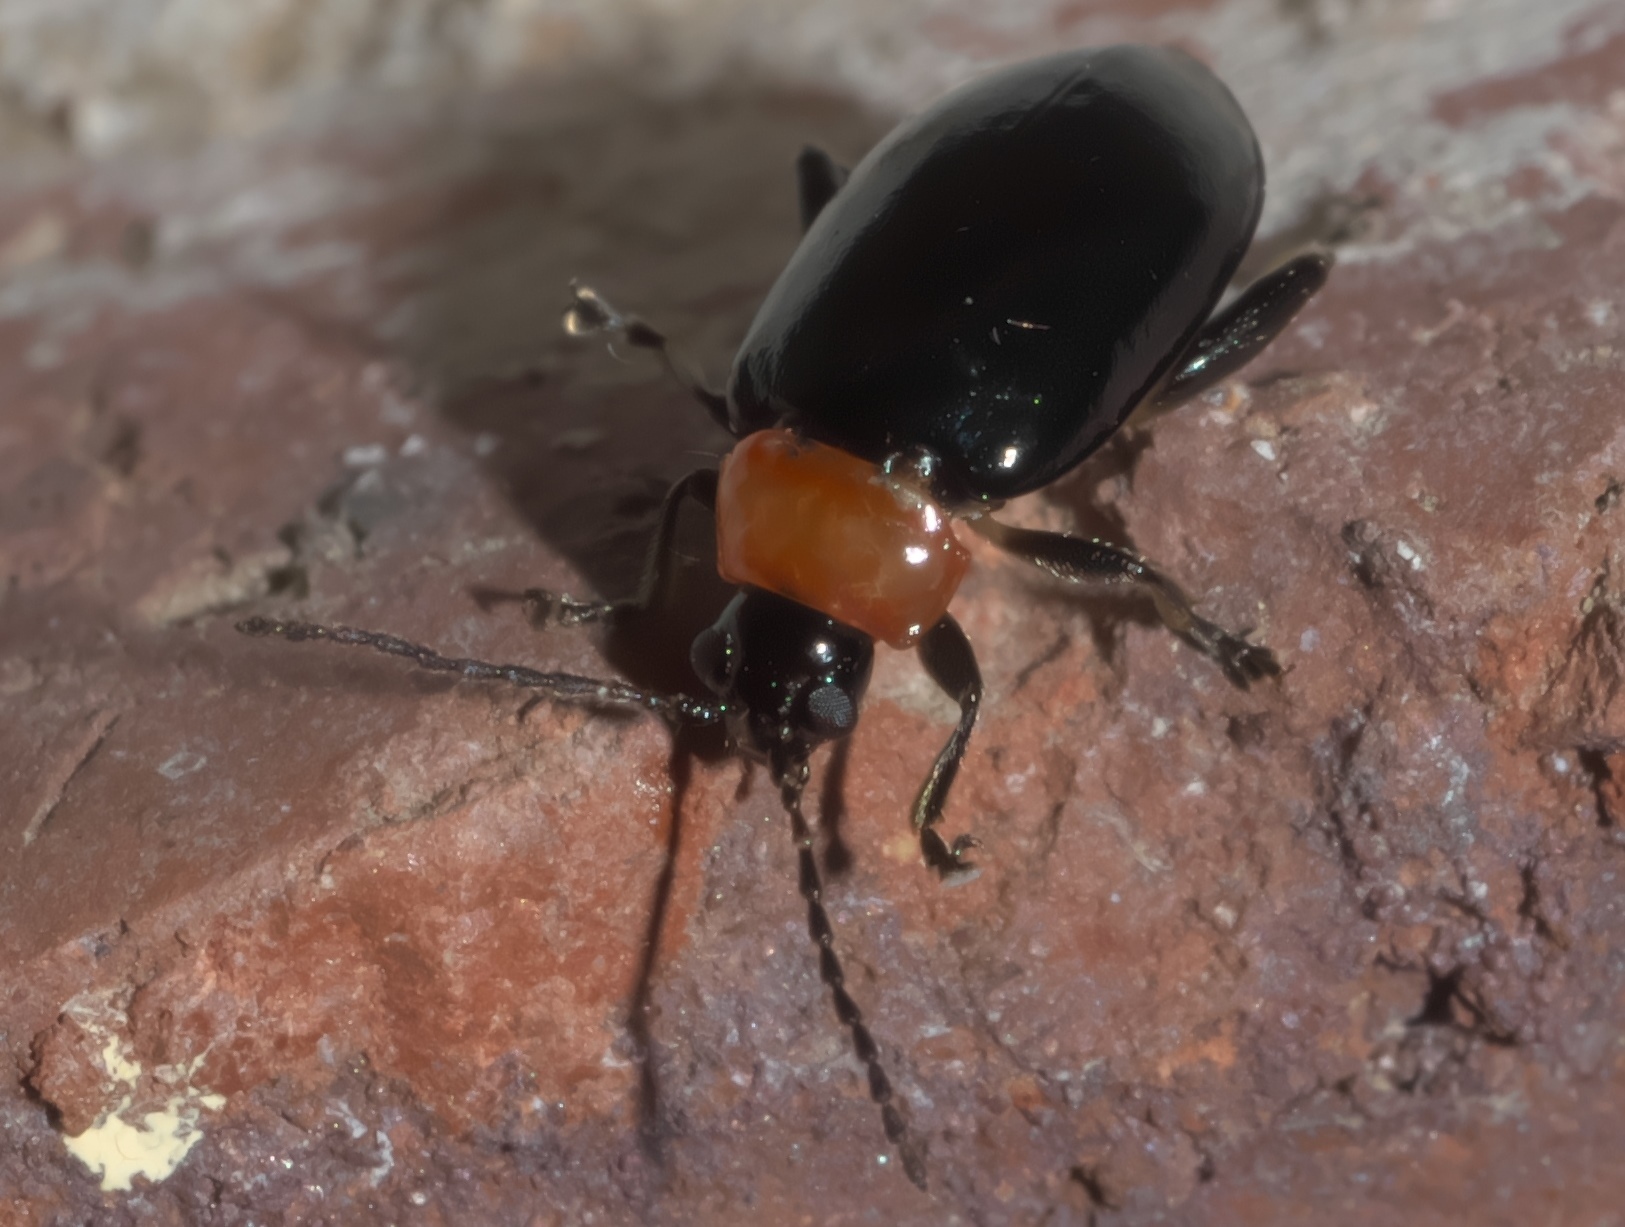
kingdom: Animalia
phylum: Arthropoda
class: Insecta
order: Coleoptera
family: Chrysomelidae
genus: Disonycha
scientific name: Disonycha xanthomelas
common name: Spinach flea beetle
